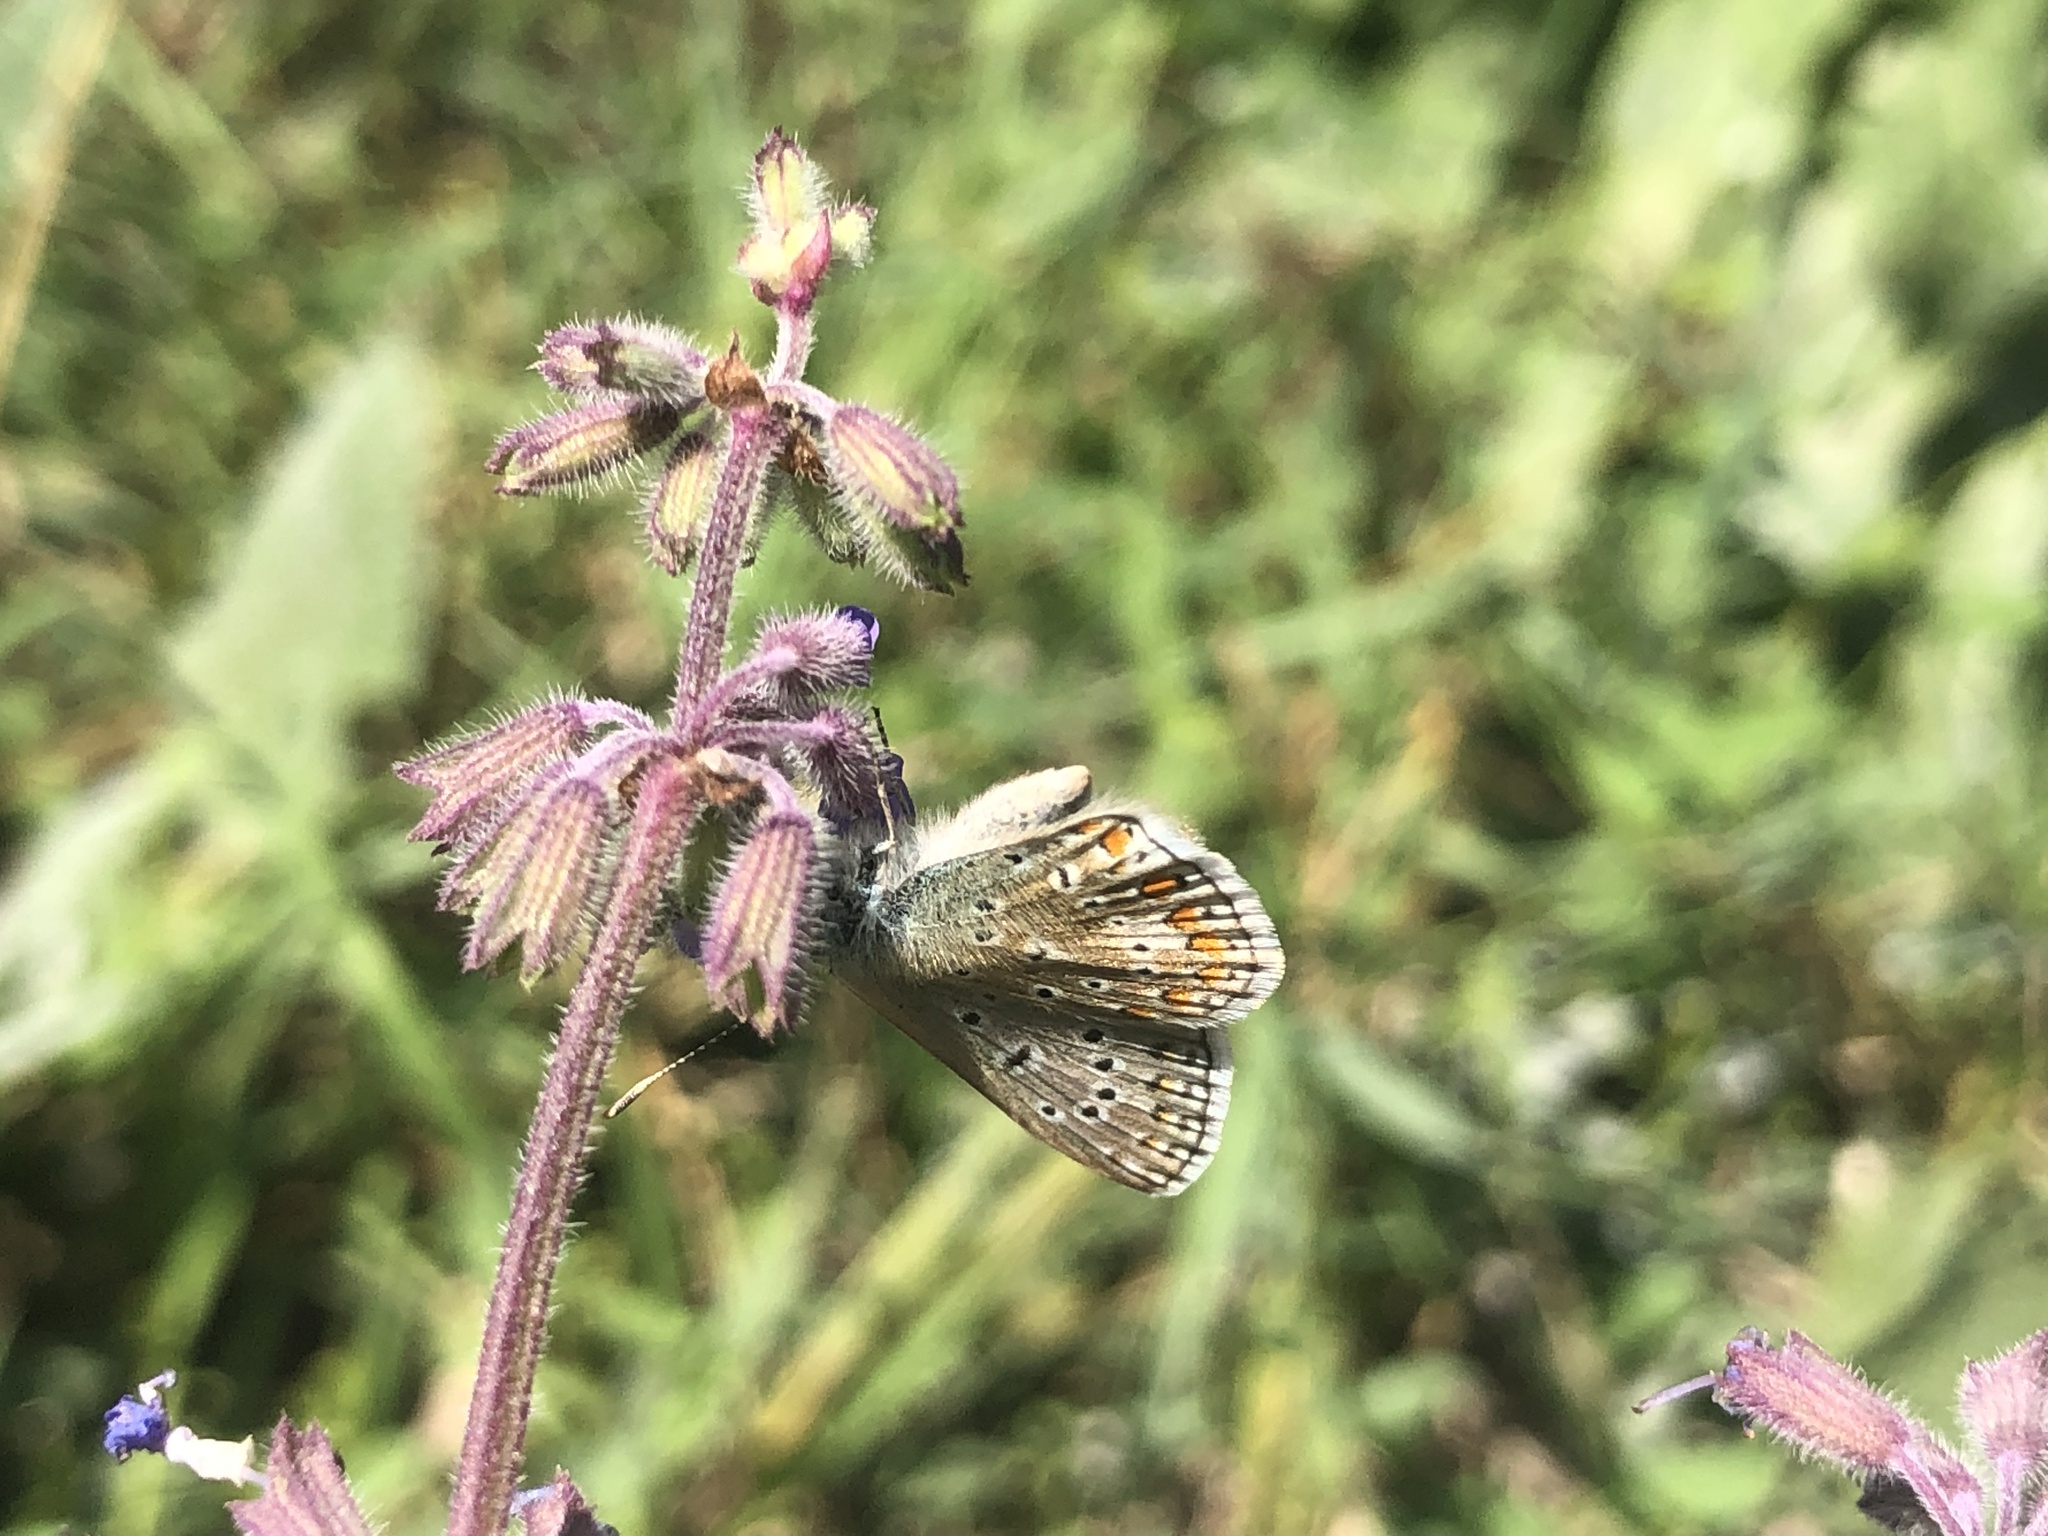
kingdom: Animalia
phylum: Arthropoda
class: Insecta
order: Lepidoptera
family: Lycaenidae
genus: Polyommatus
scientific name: Polyommatus icarus
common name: Common blue
